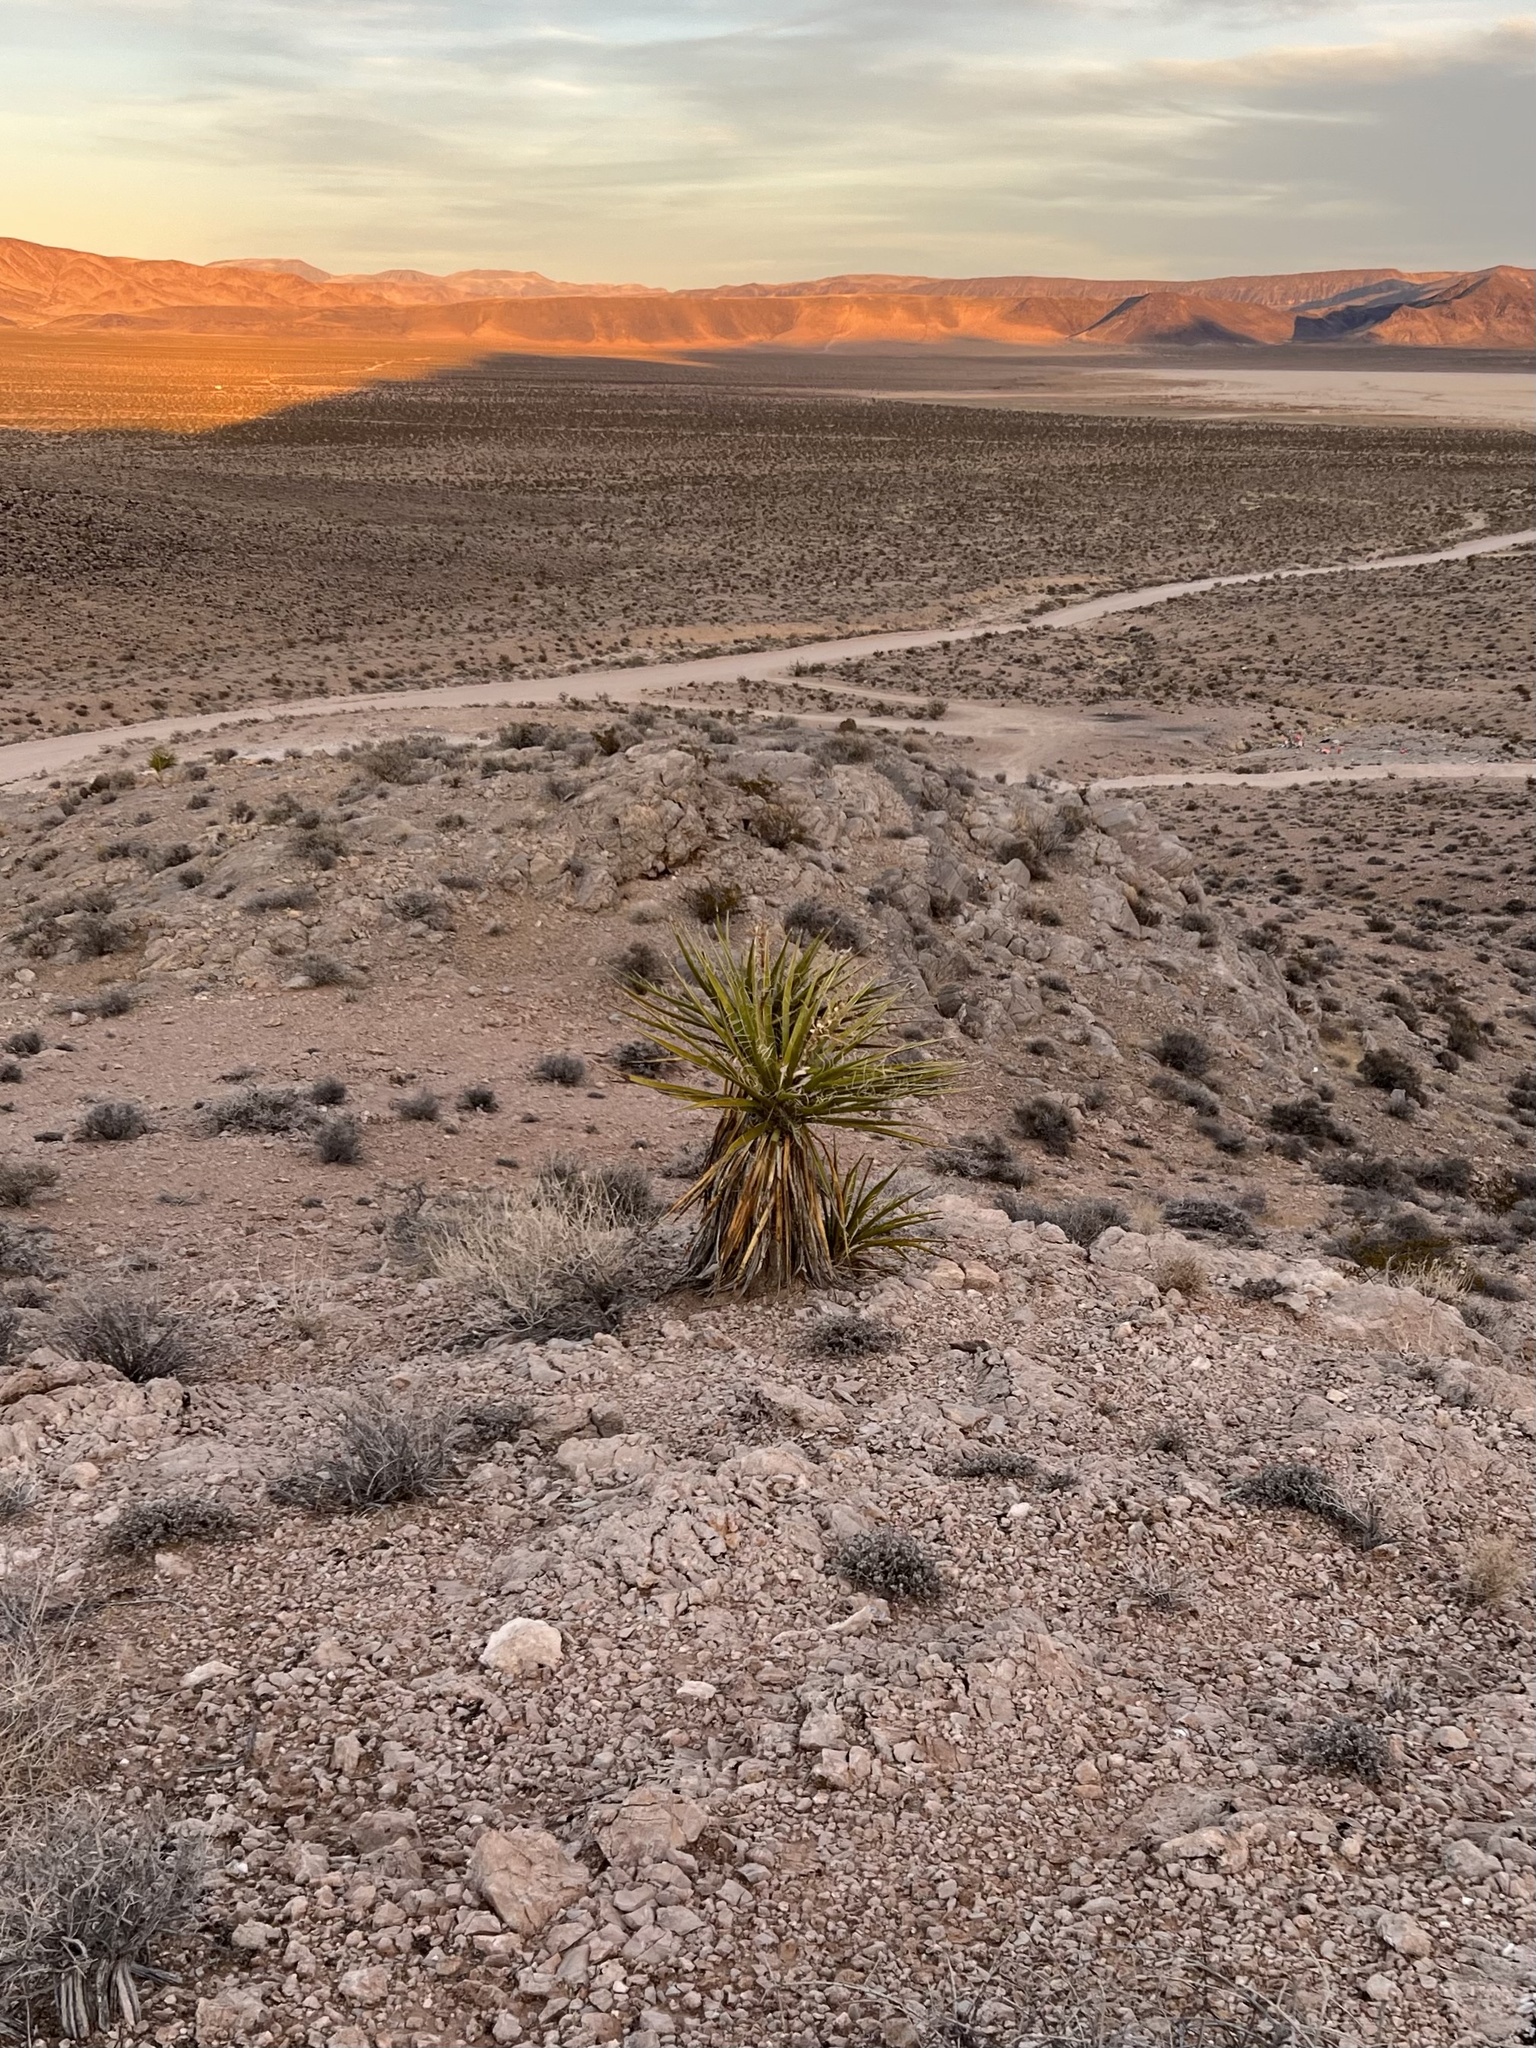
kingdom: Plantae
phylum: Tracheophyta
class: Liliopsida
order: Asparagales
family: Asparagaceae
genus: Yucca
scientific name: Yucca schidigera
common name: Mojave yucca
